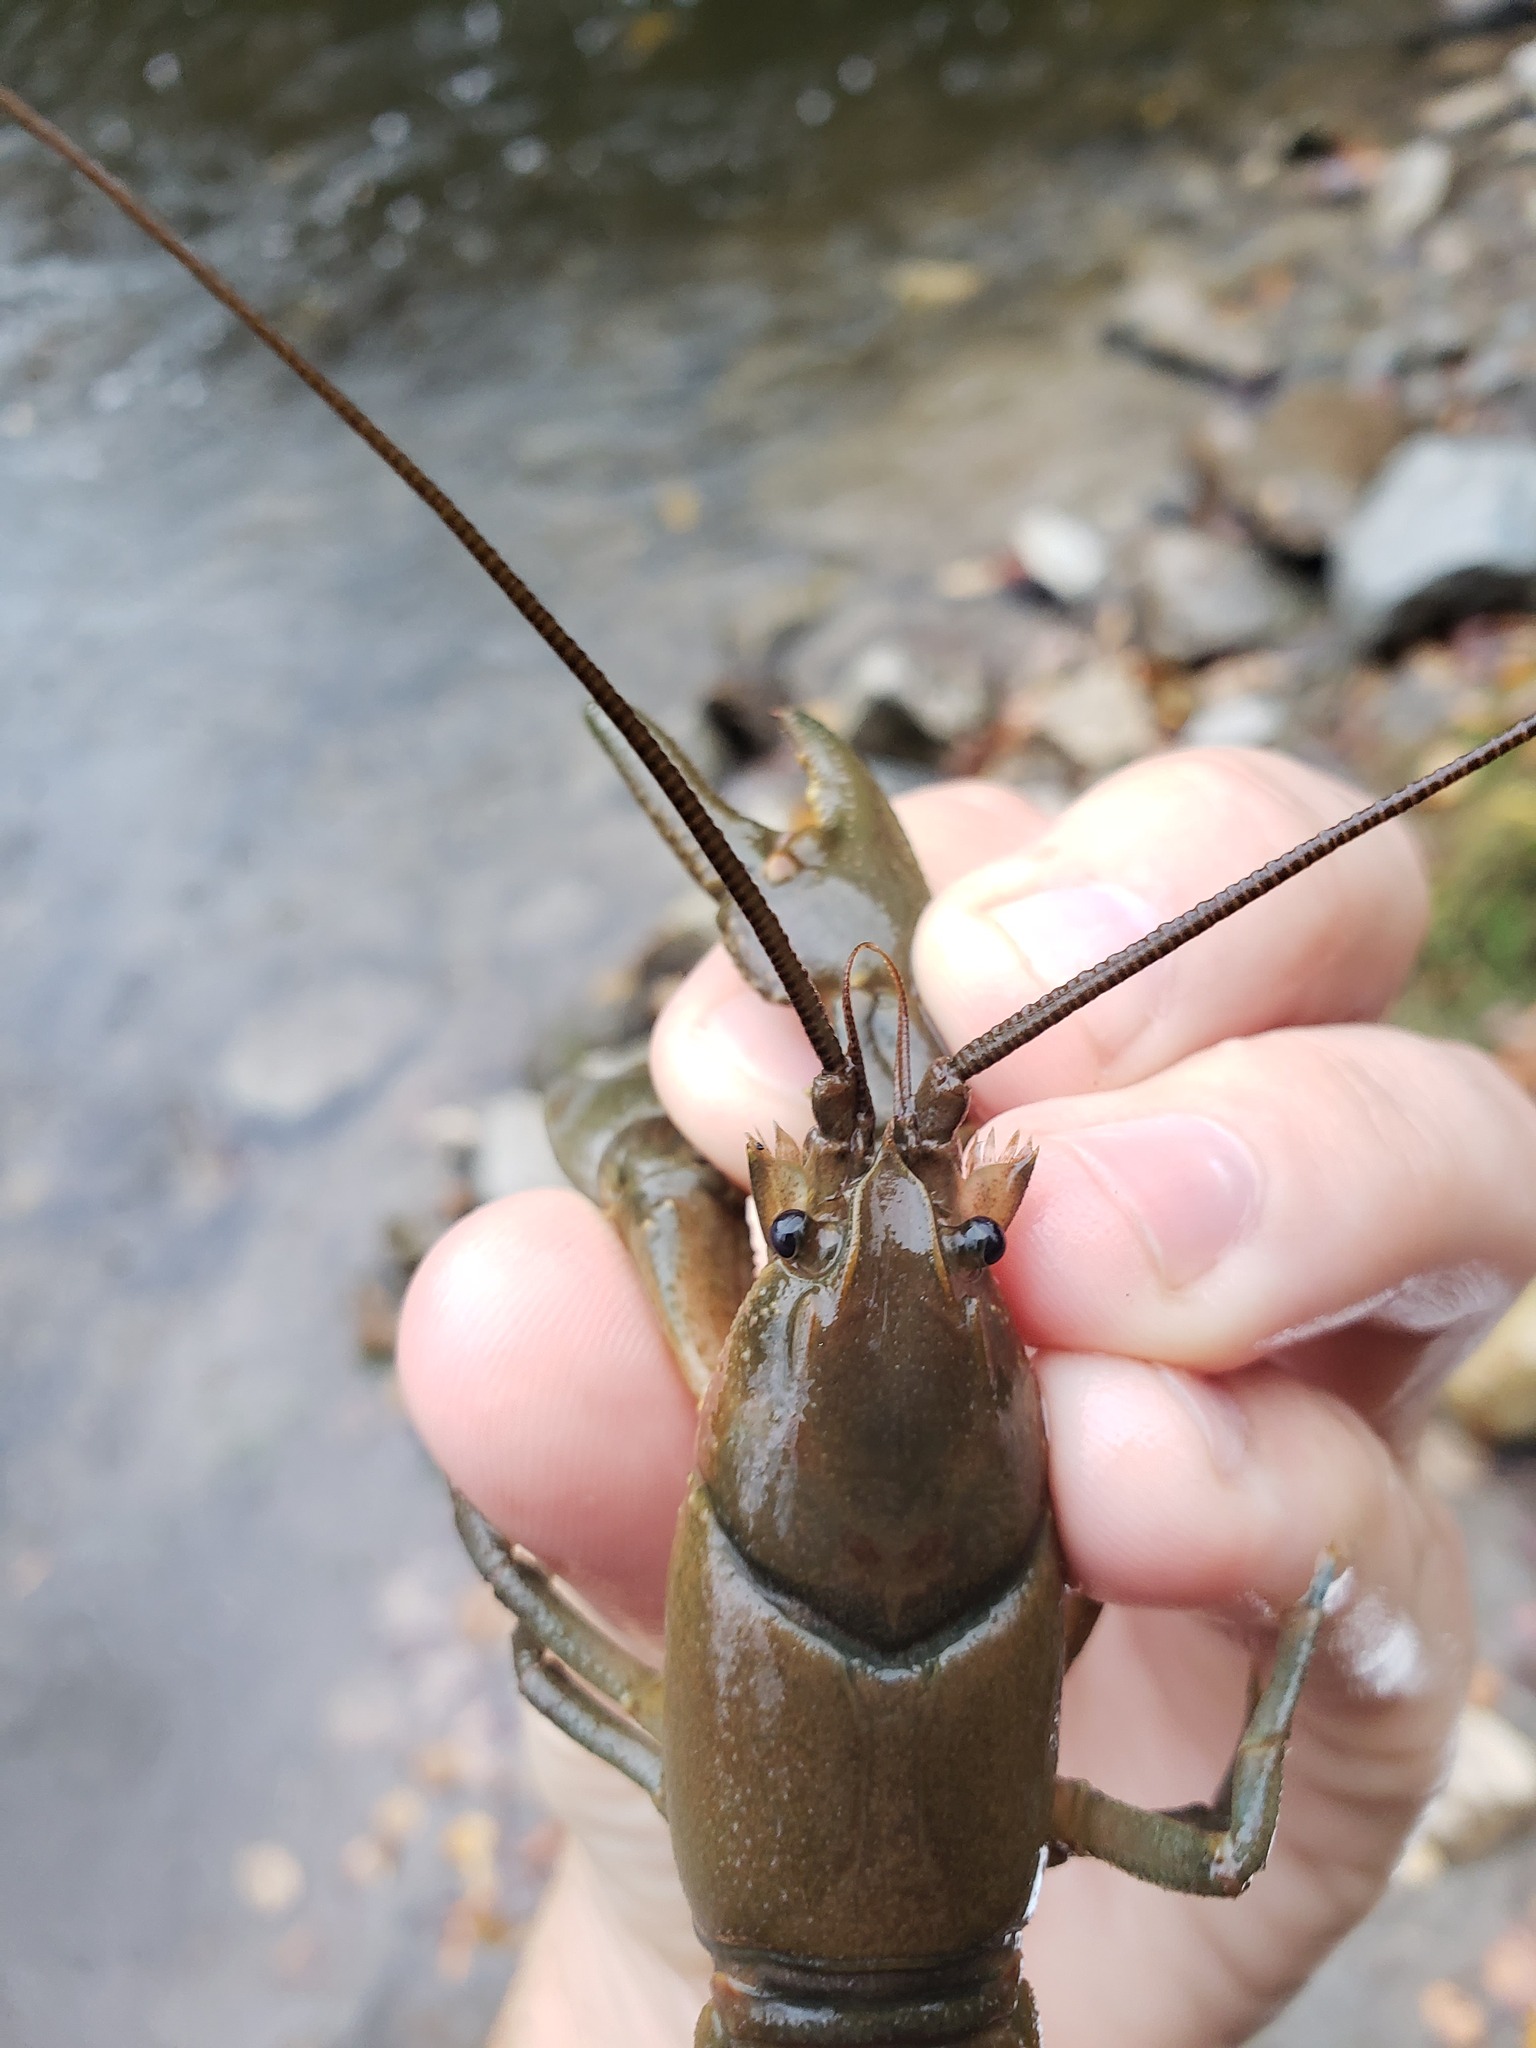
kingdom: Animalia
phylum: Arthropoda
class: Malacostraca
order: Decapoda
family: Cambaridae
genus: Cambarus
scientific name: Cambarus robustus
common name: Big water crayfish
